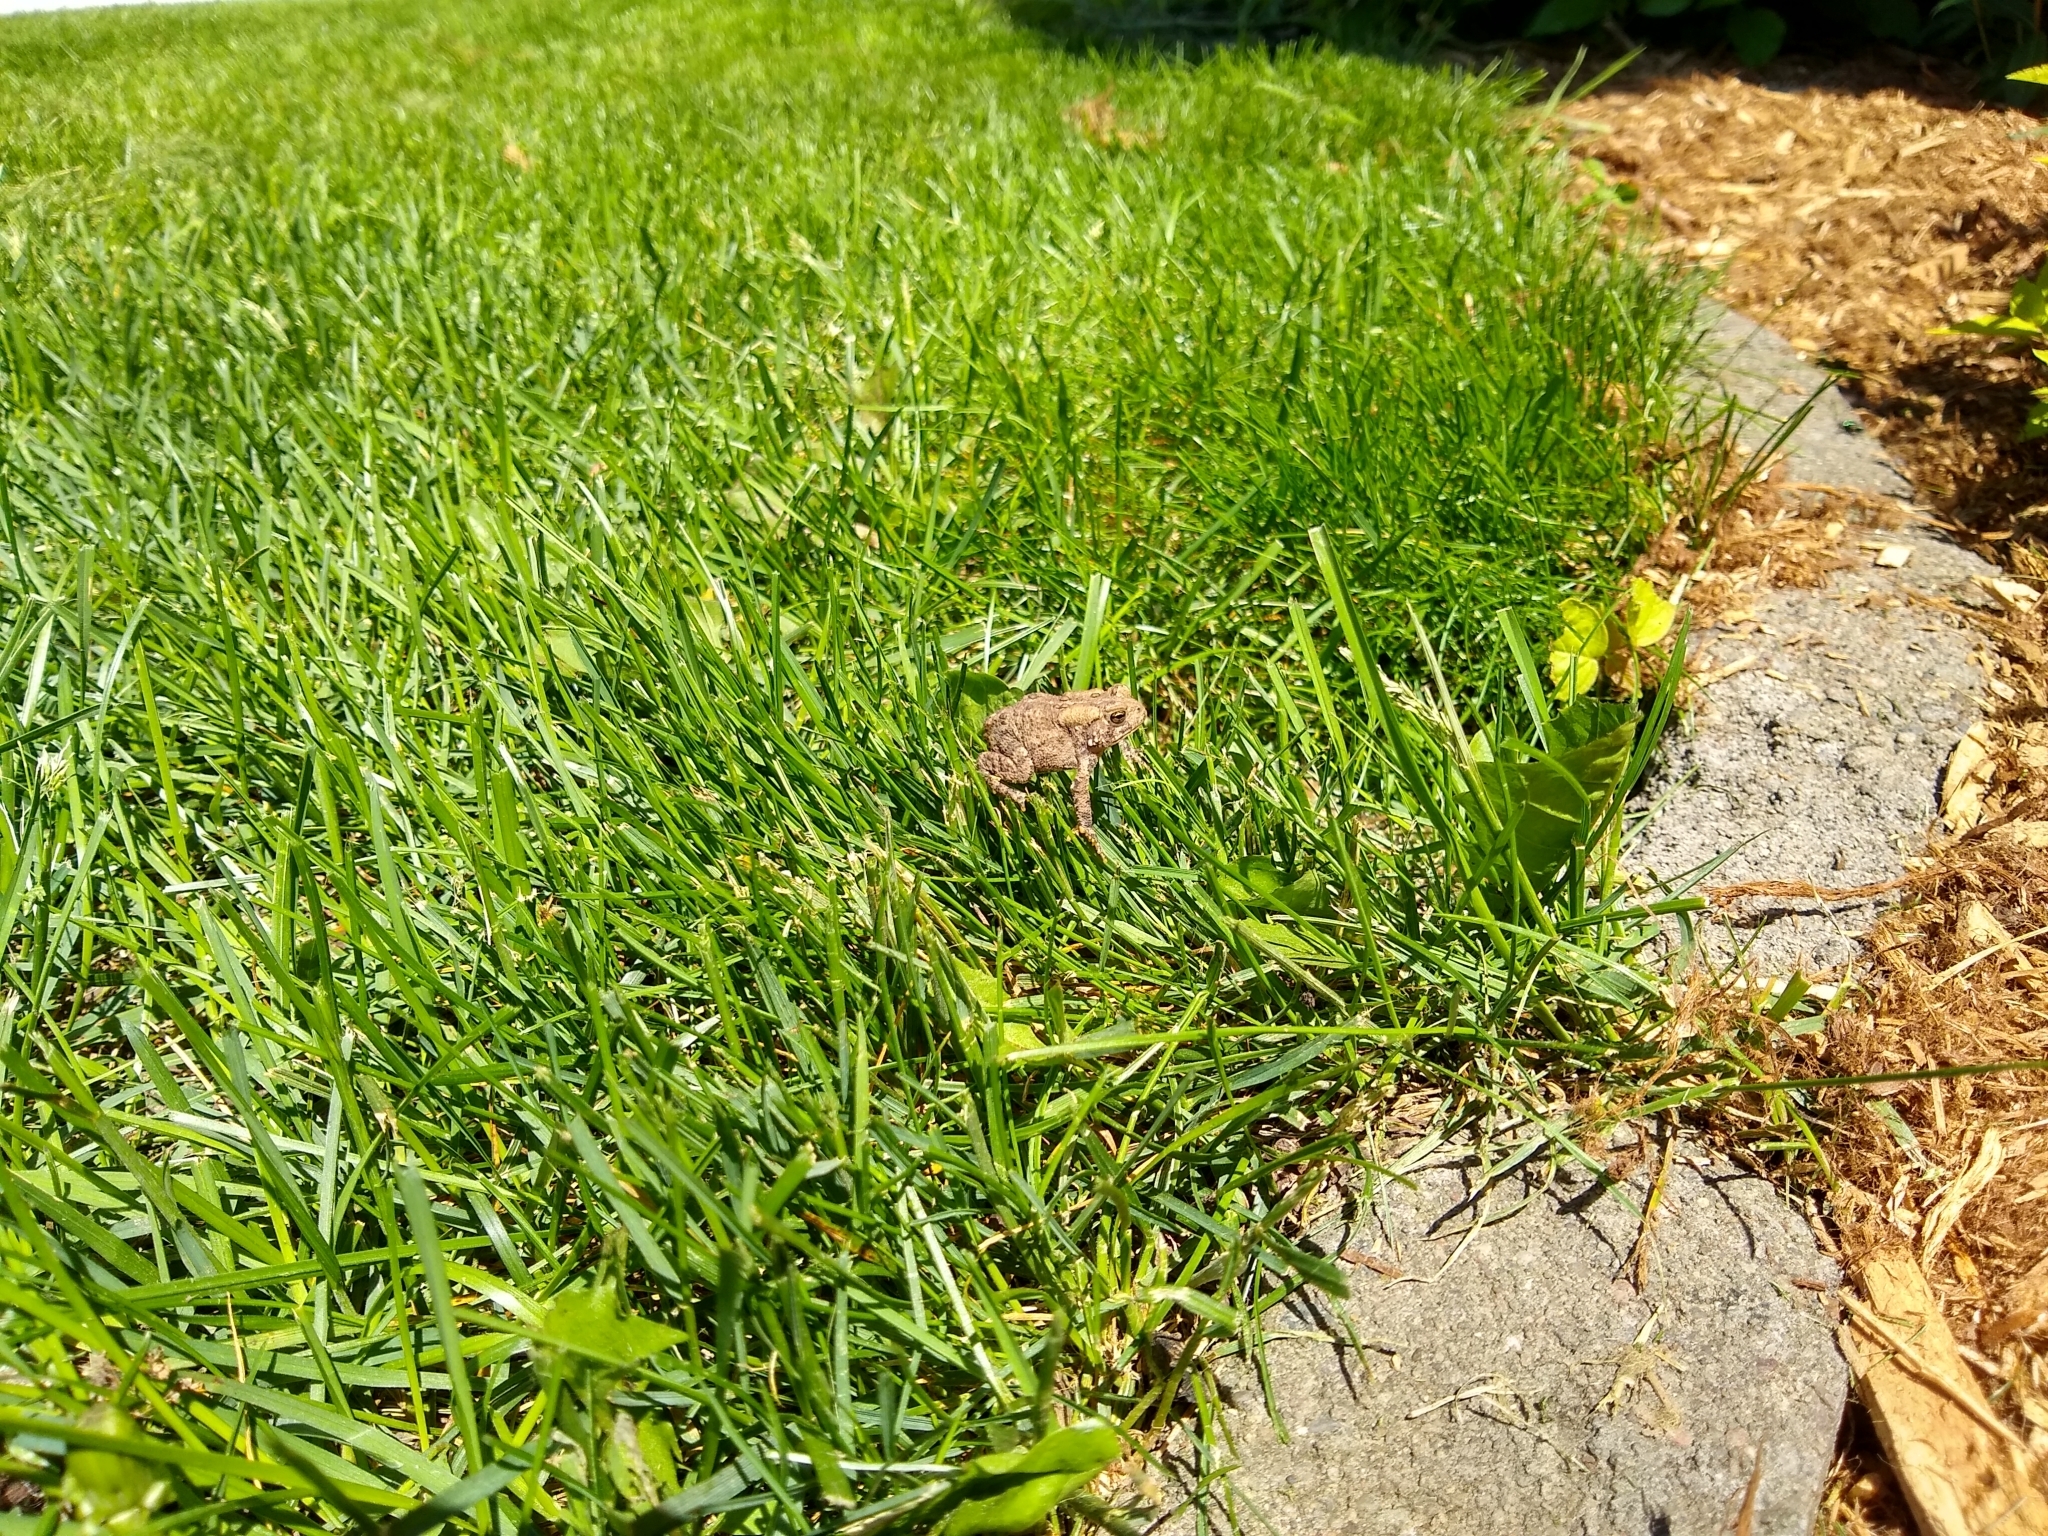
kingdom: Animalia
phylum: Chordata
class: Amphibia
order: Anura
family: Bufonidae
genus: Anaxyrus
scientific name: Anaxyrus americanus
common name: American toad
